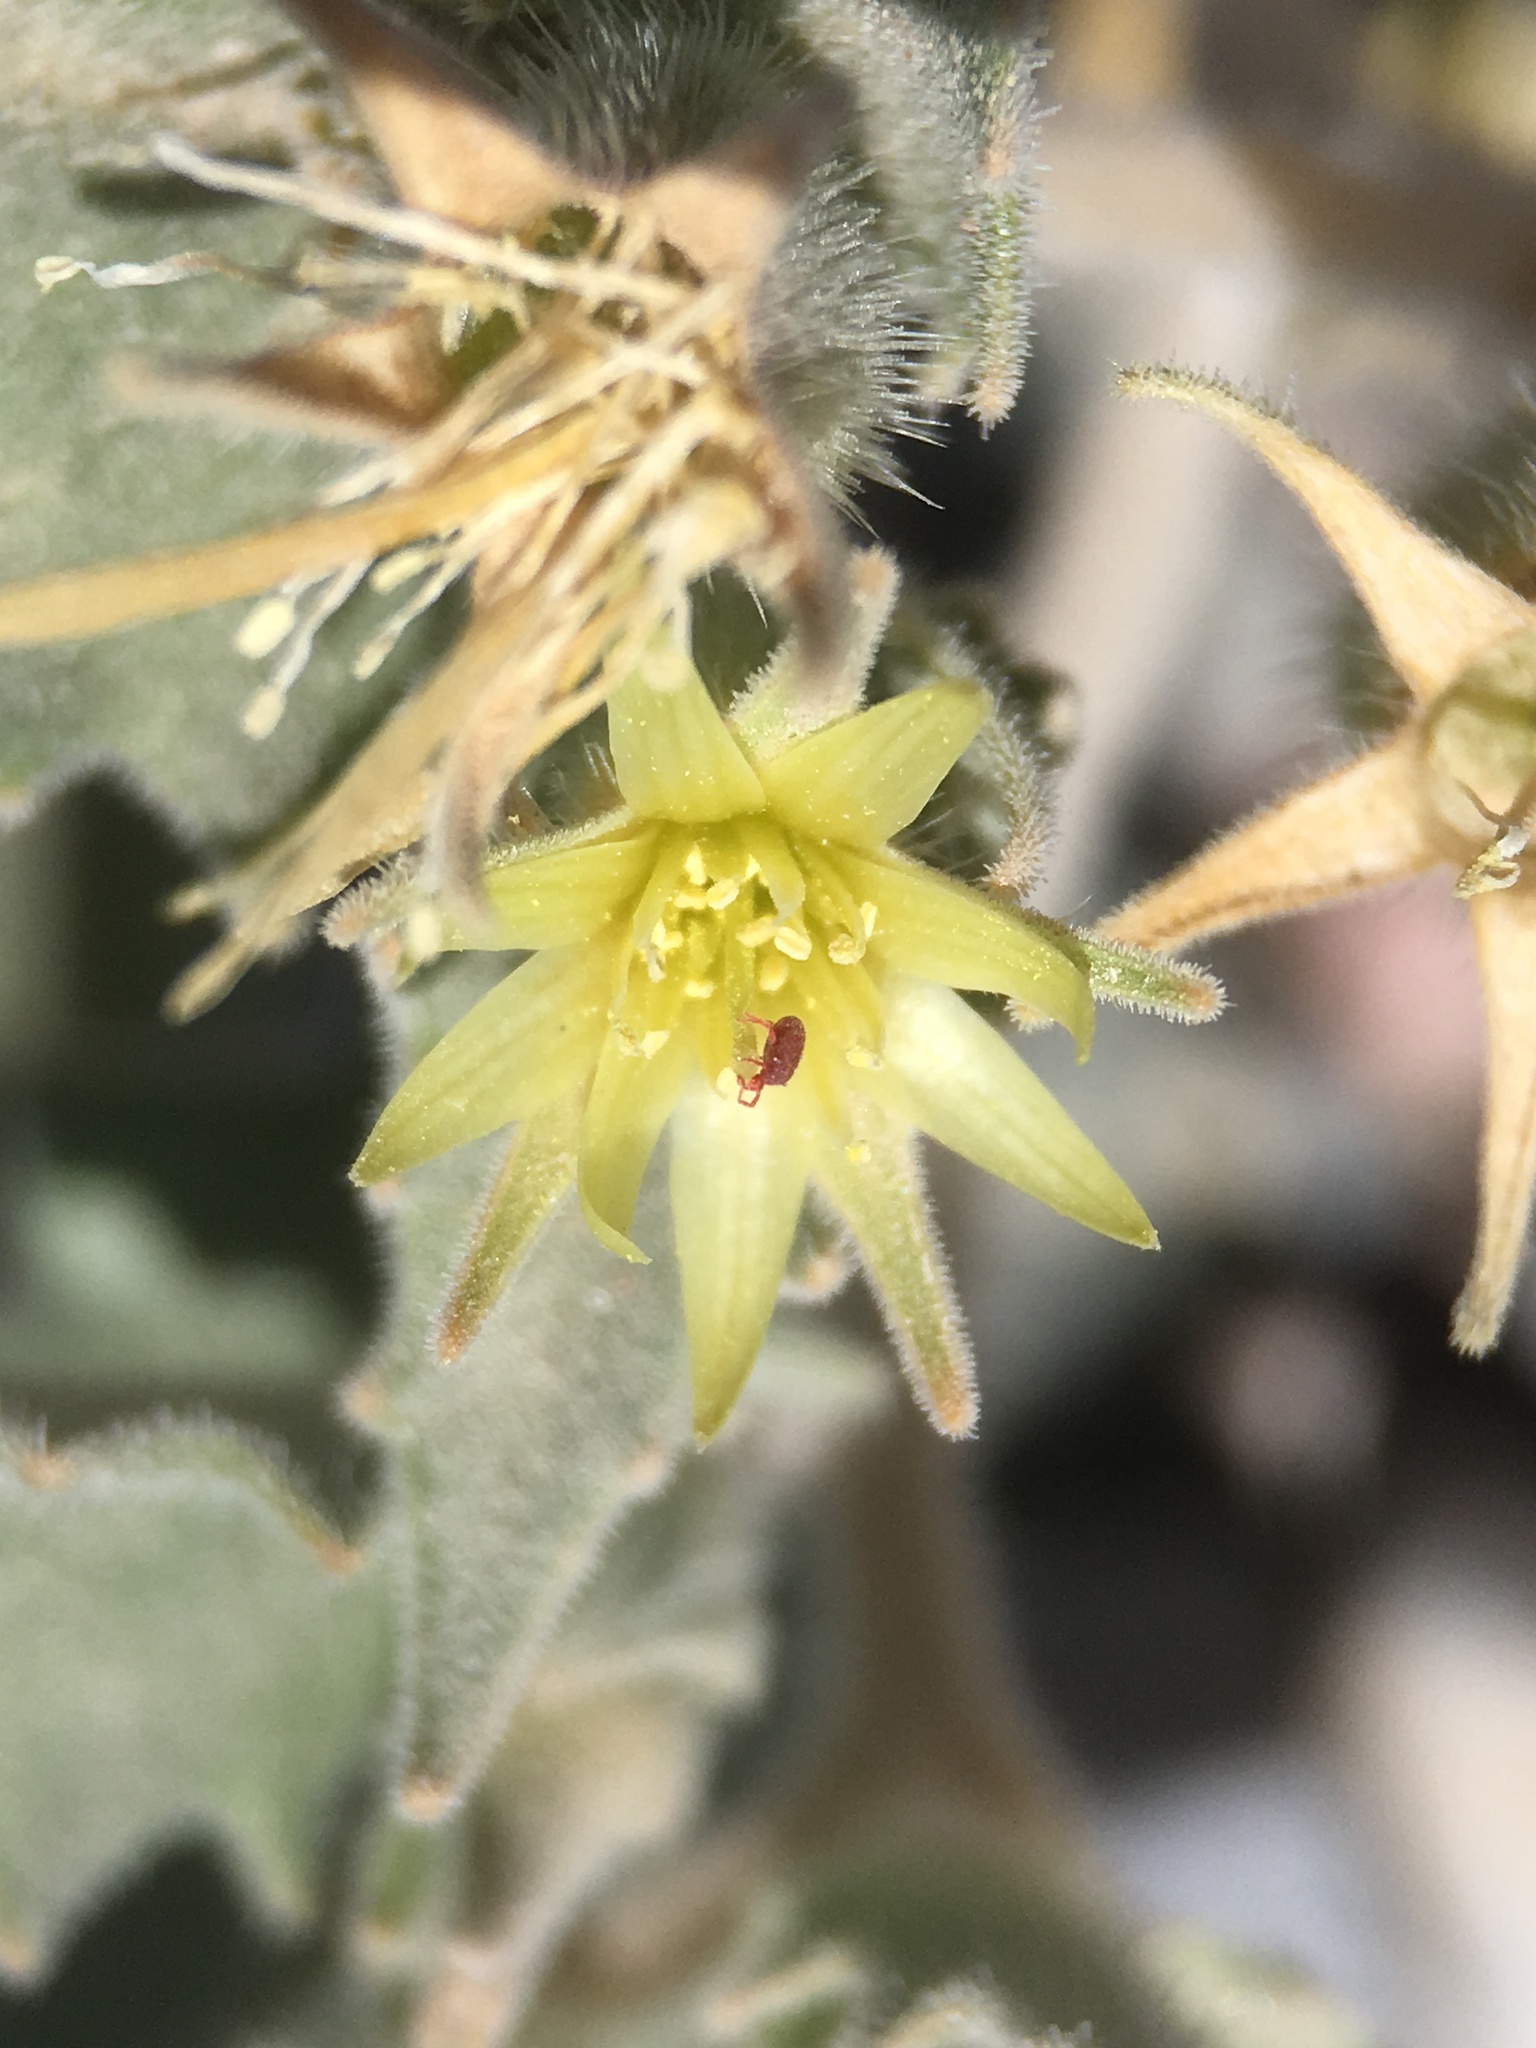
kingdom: Plantae
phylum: Tracheophyta
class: Magnoliopsida
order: Cornales
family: Loasaceae
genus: Mentzelia
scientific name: Mentzelia reflexa
